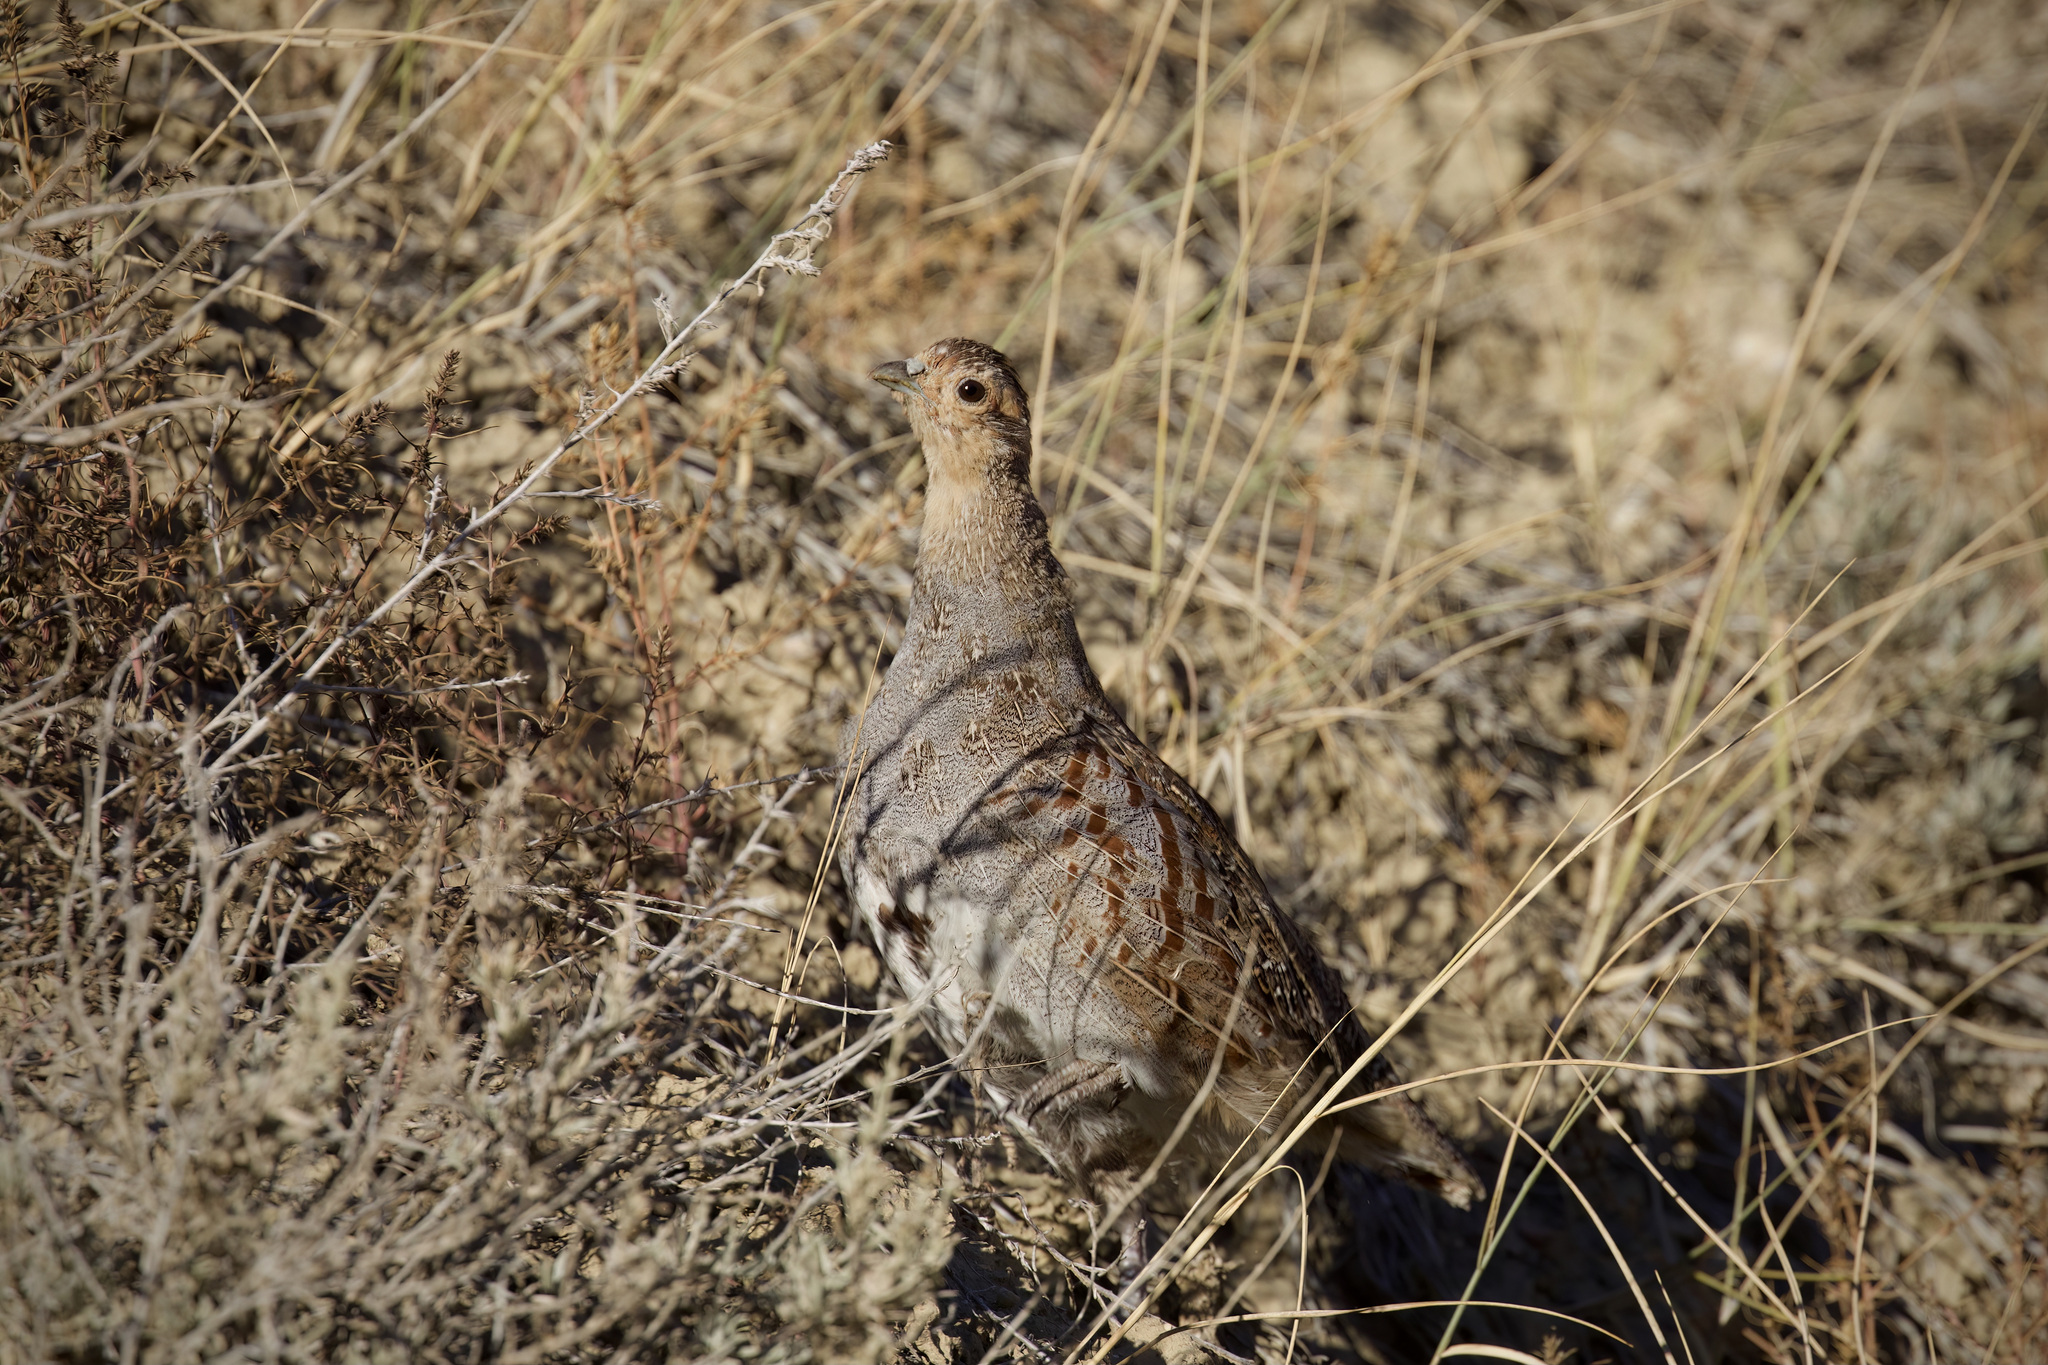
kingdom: Animalia
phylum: Chordata
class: Aves
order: Galliformes
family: Phasianidae
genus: Perdix
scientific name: Perdix perdix
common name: Grey partridge
